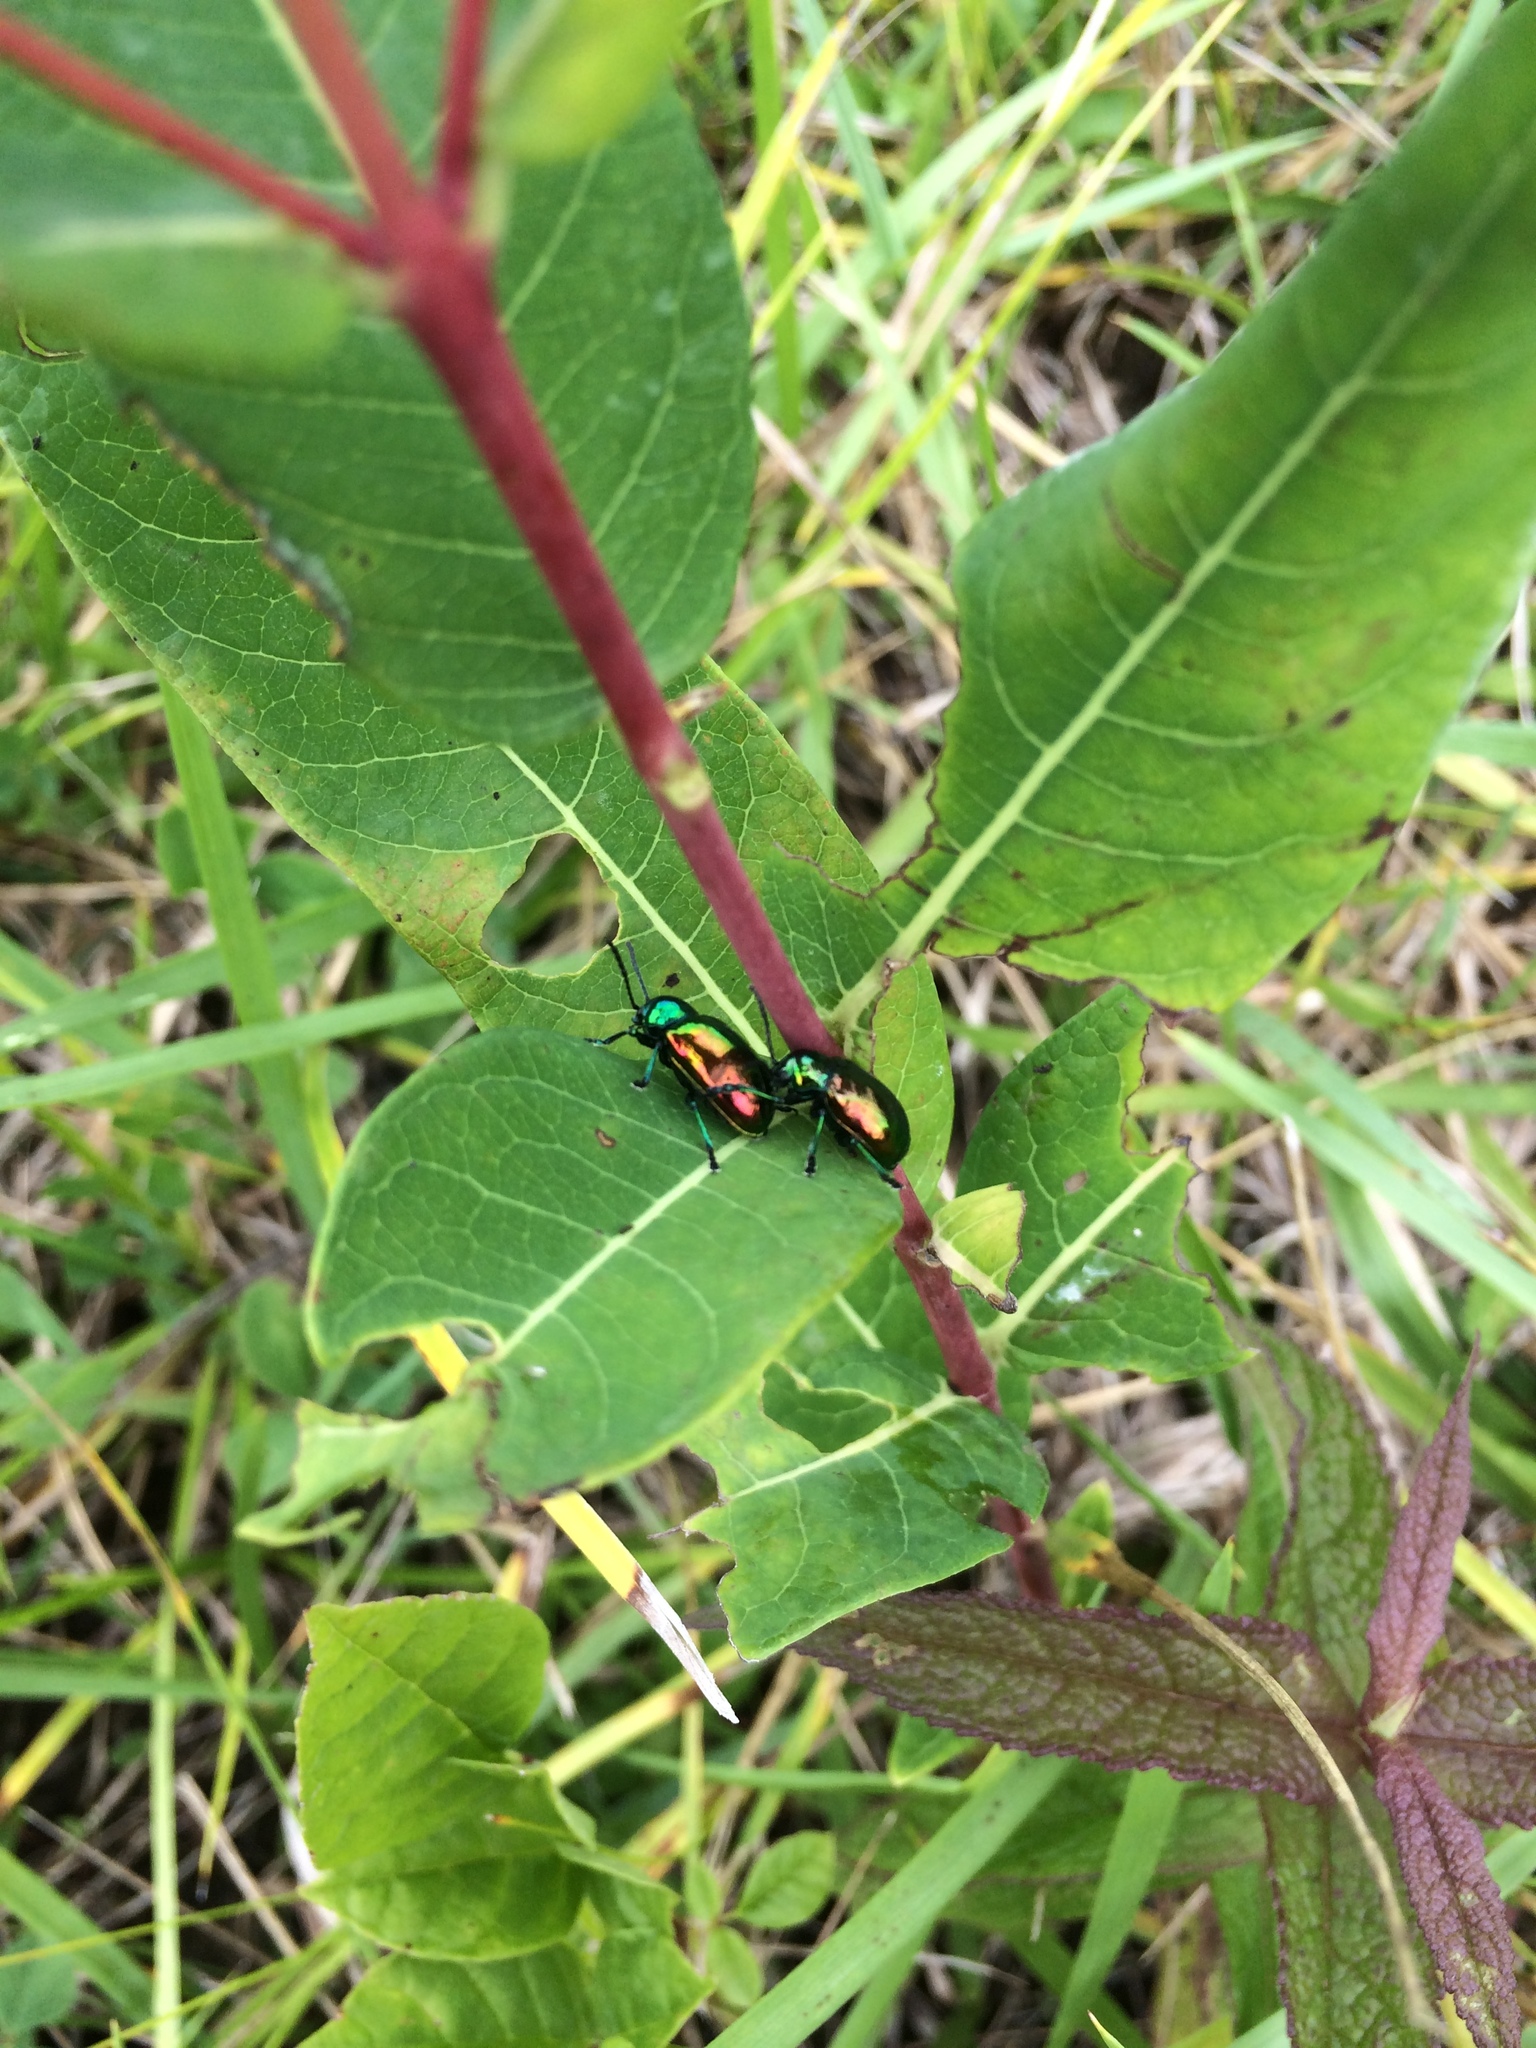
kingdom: Animalia
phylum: Arthropoda
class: Insecta
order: Coleoptera
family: Chrysomelidae
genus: Chrysochus
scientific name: Chrysochus auratus
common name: Dogbane leaf beetle
